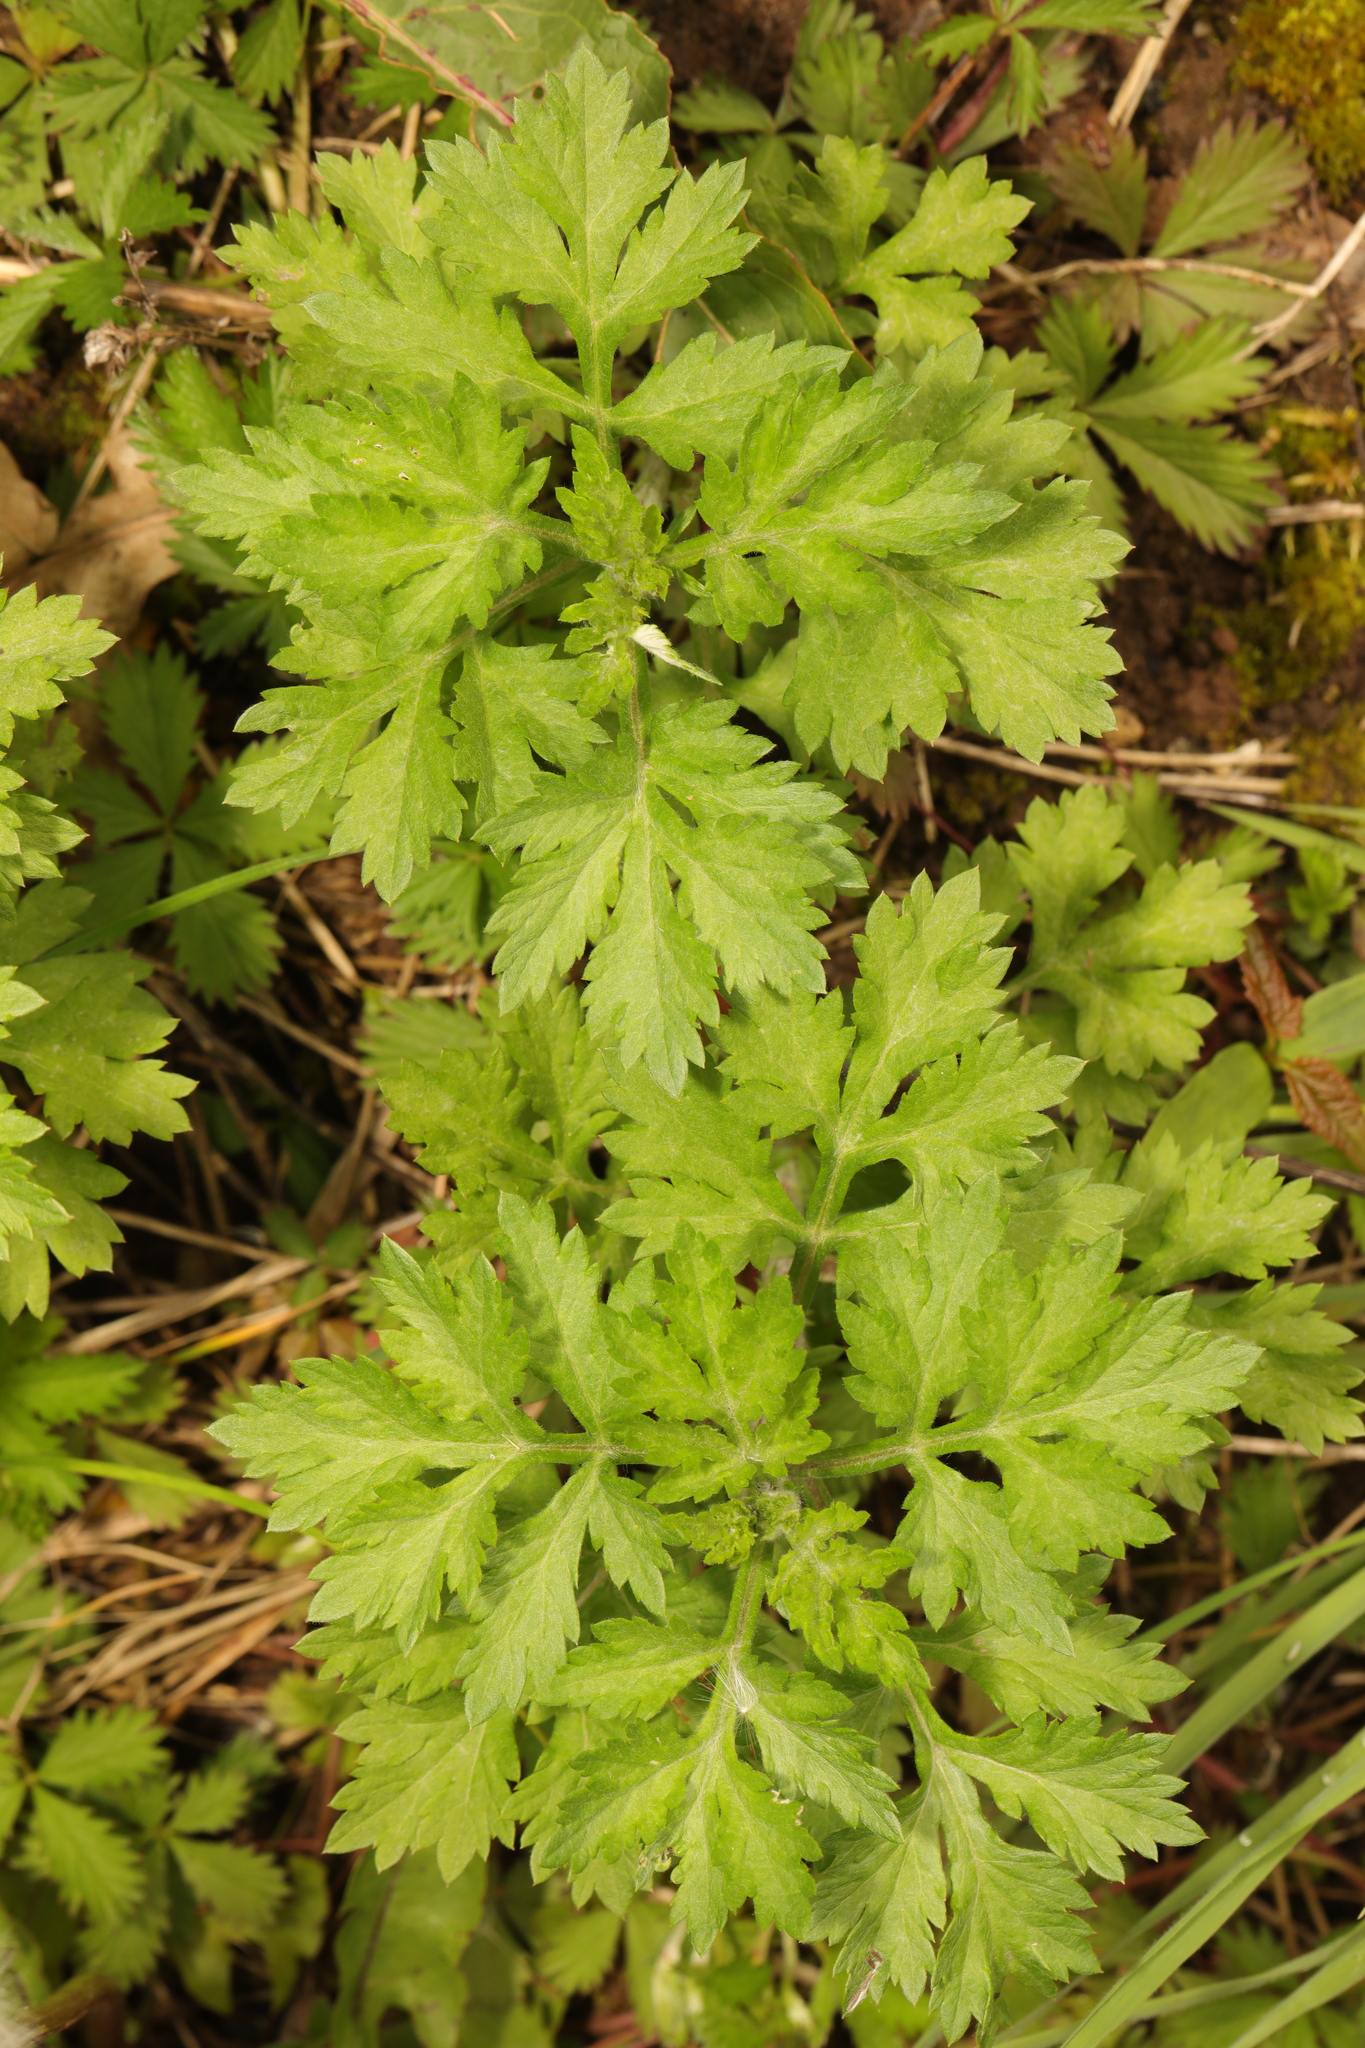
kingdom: Plantae
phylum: Tracheophyta
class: Magnoliopsida
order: Asterales
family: Asteraceae
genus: Artemisia
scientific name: Artemisia vulgaris
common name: Mugwort
